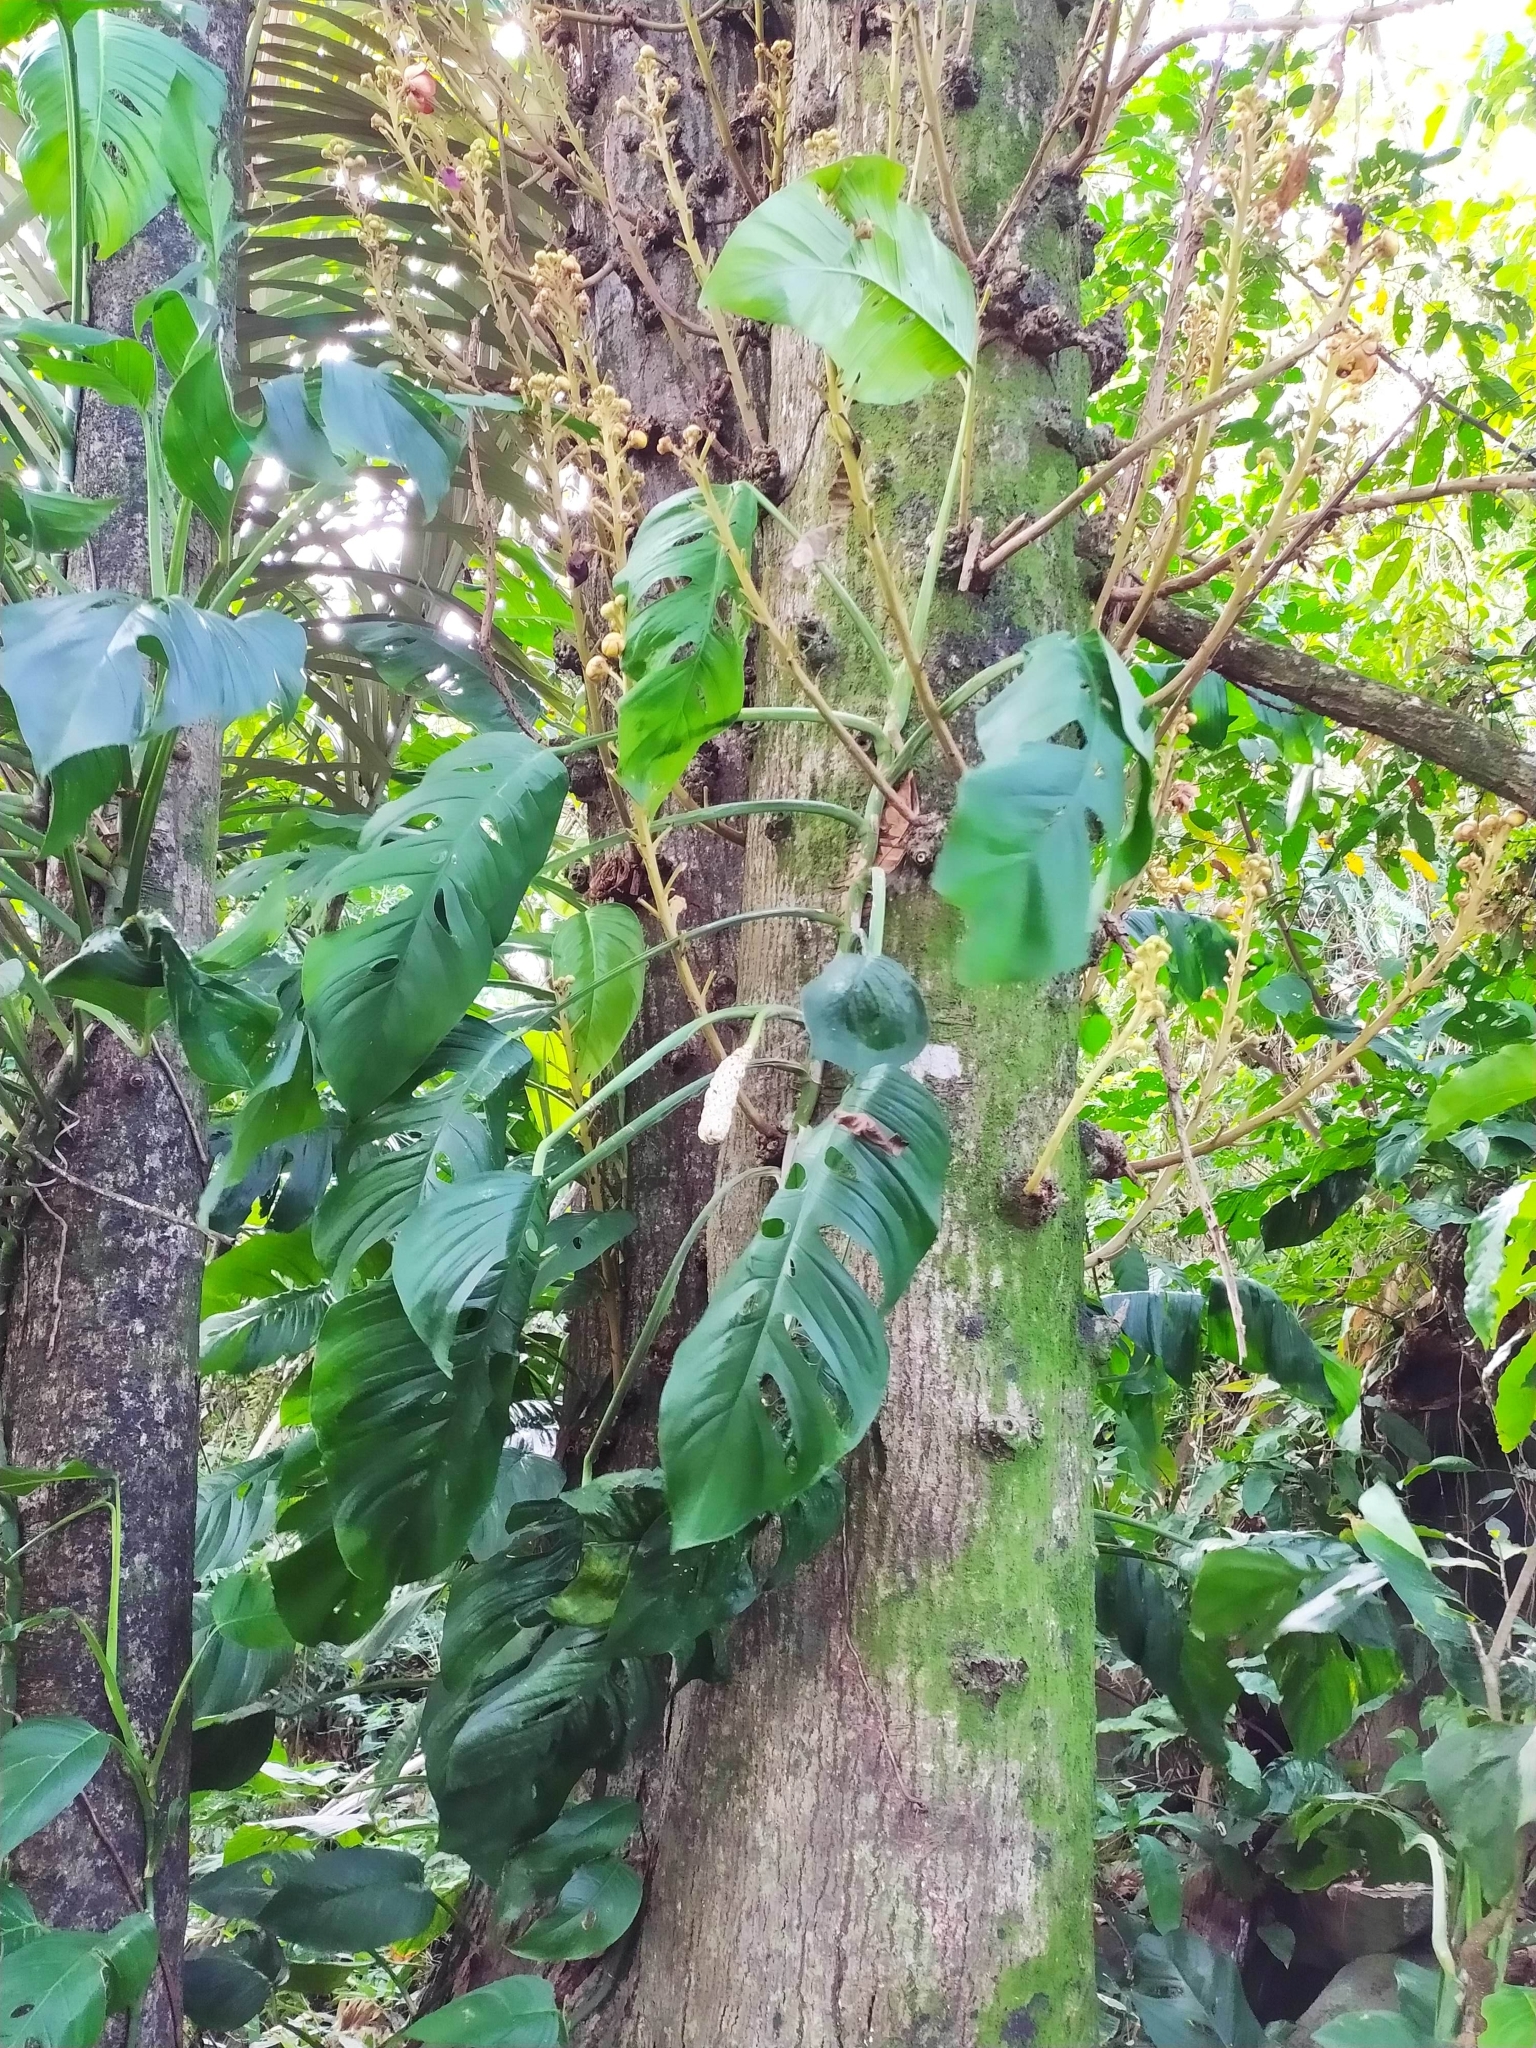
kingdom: Plantae
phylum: Tracheophyta
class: Liliopsida
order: Alismatales
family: Araceae
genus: Monstera
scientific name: Monstera adansonii
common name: Tarovine
